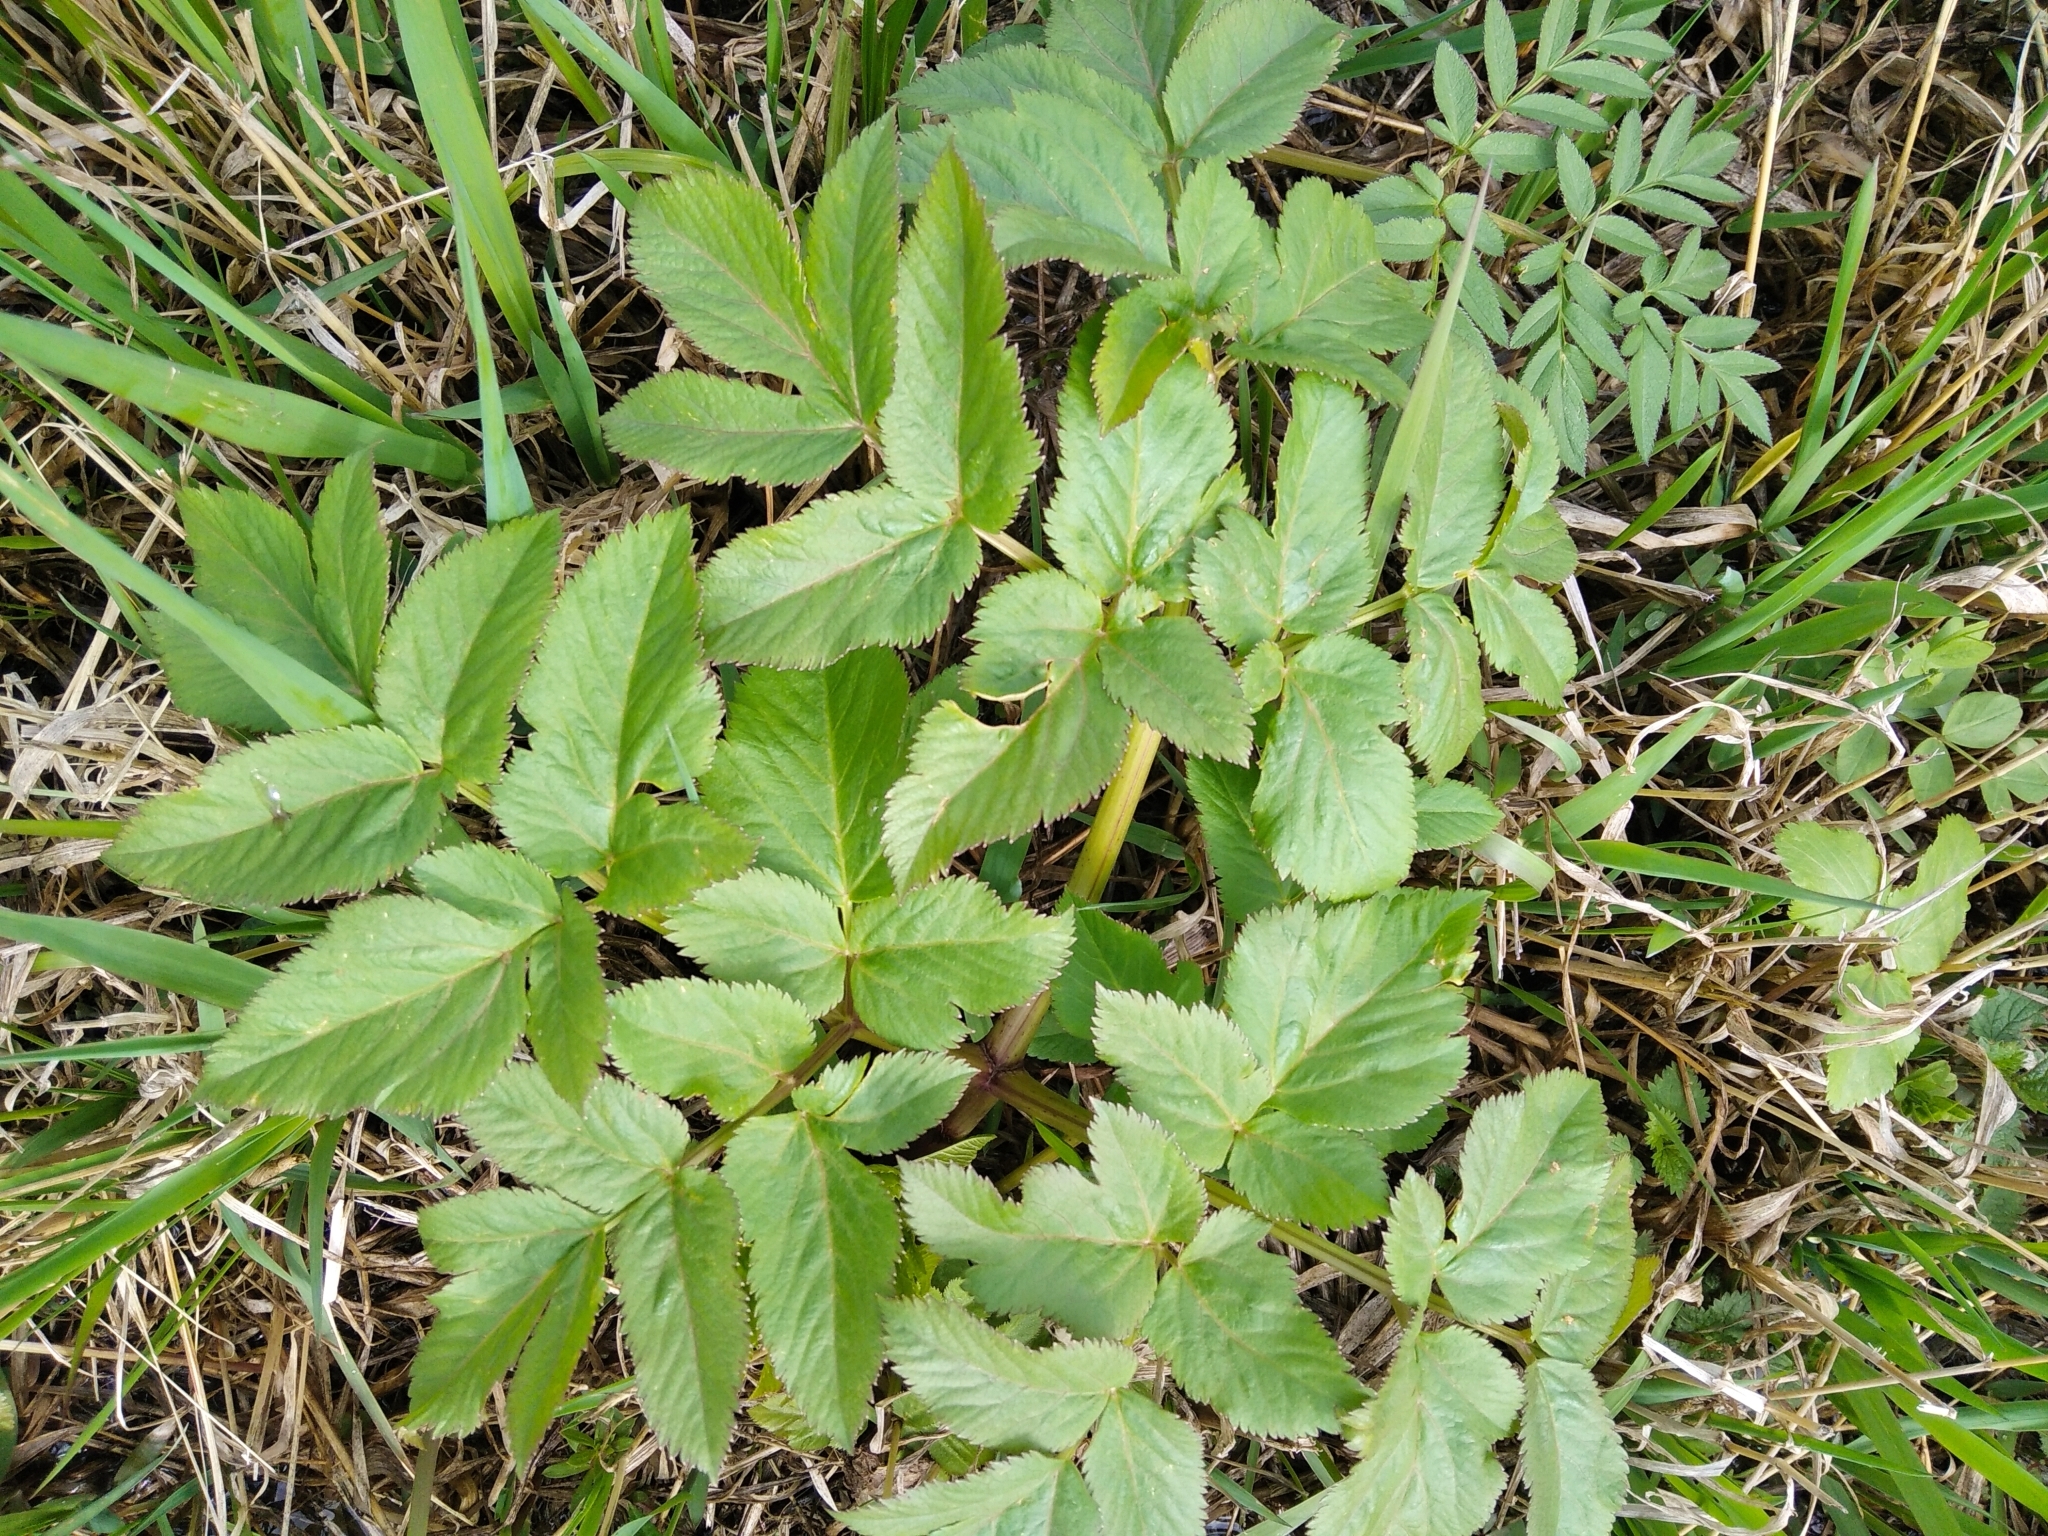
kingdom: Plantae
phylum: Tracheophyta
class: Magnoliopsida
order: Apiales
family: Apiaceae
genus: Angelica
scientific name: Angelica sylvestris
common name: Wild angelica
